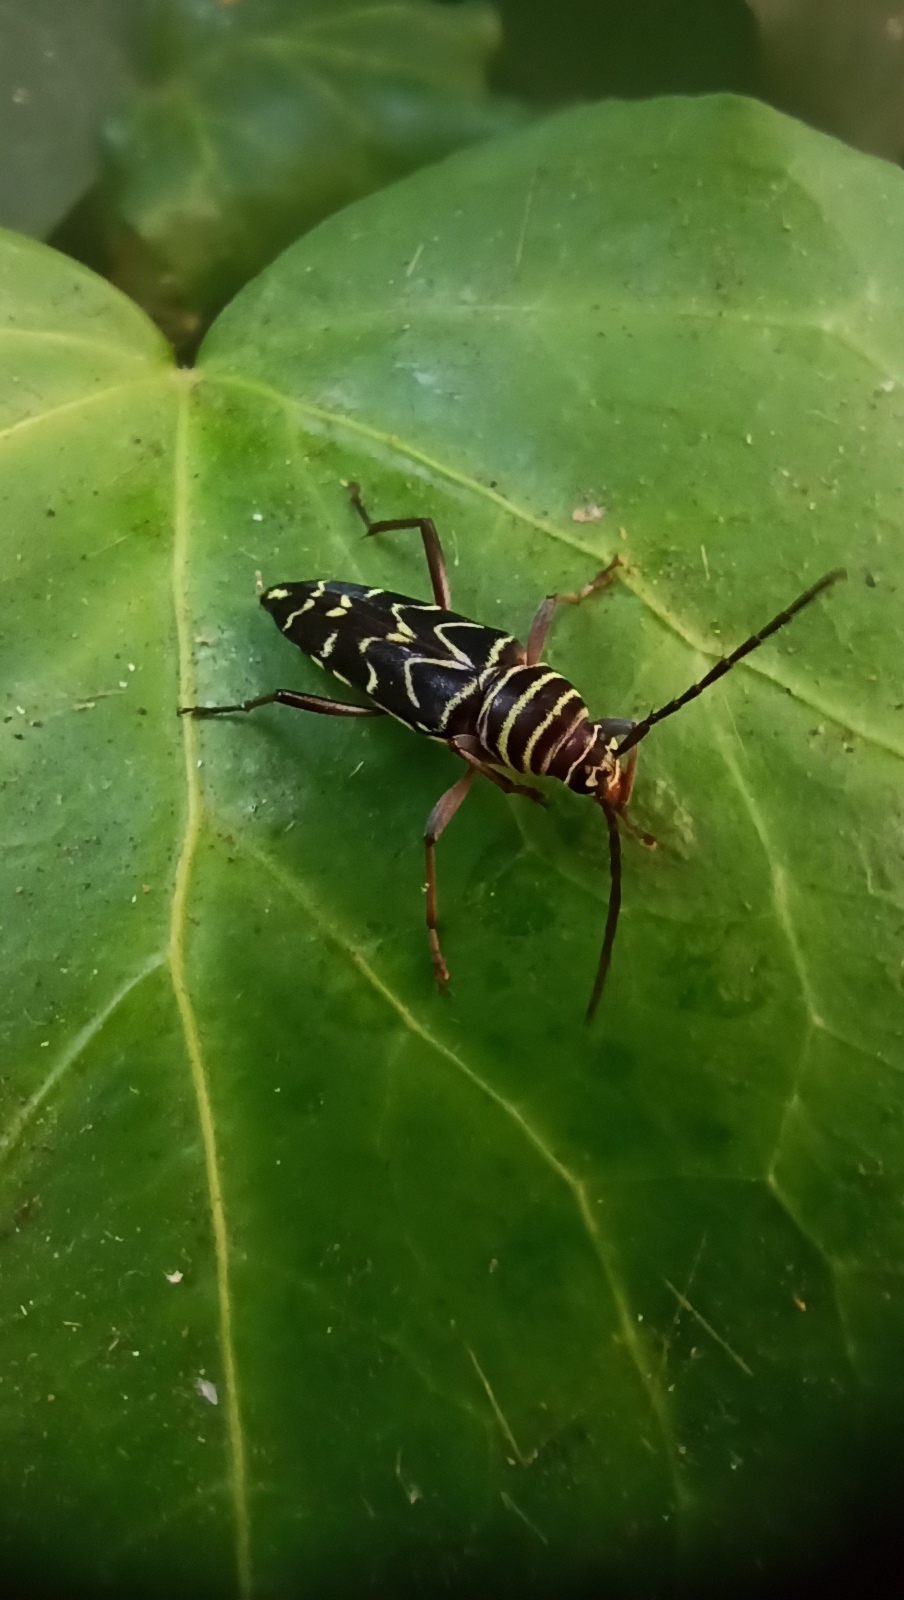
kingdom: Animalia
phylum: Arthropoda
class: Insecta
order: Coleoptera
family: Cerambycidae
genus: Megacyllene
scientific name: Megacyllene acuta
